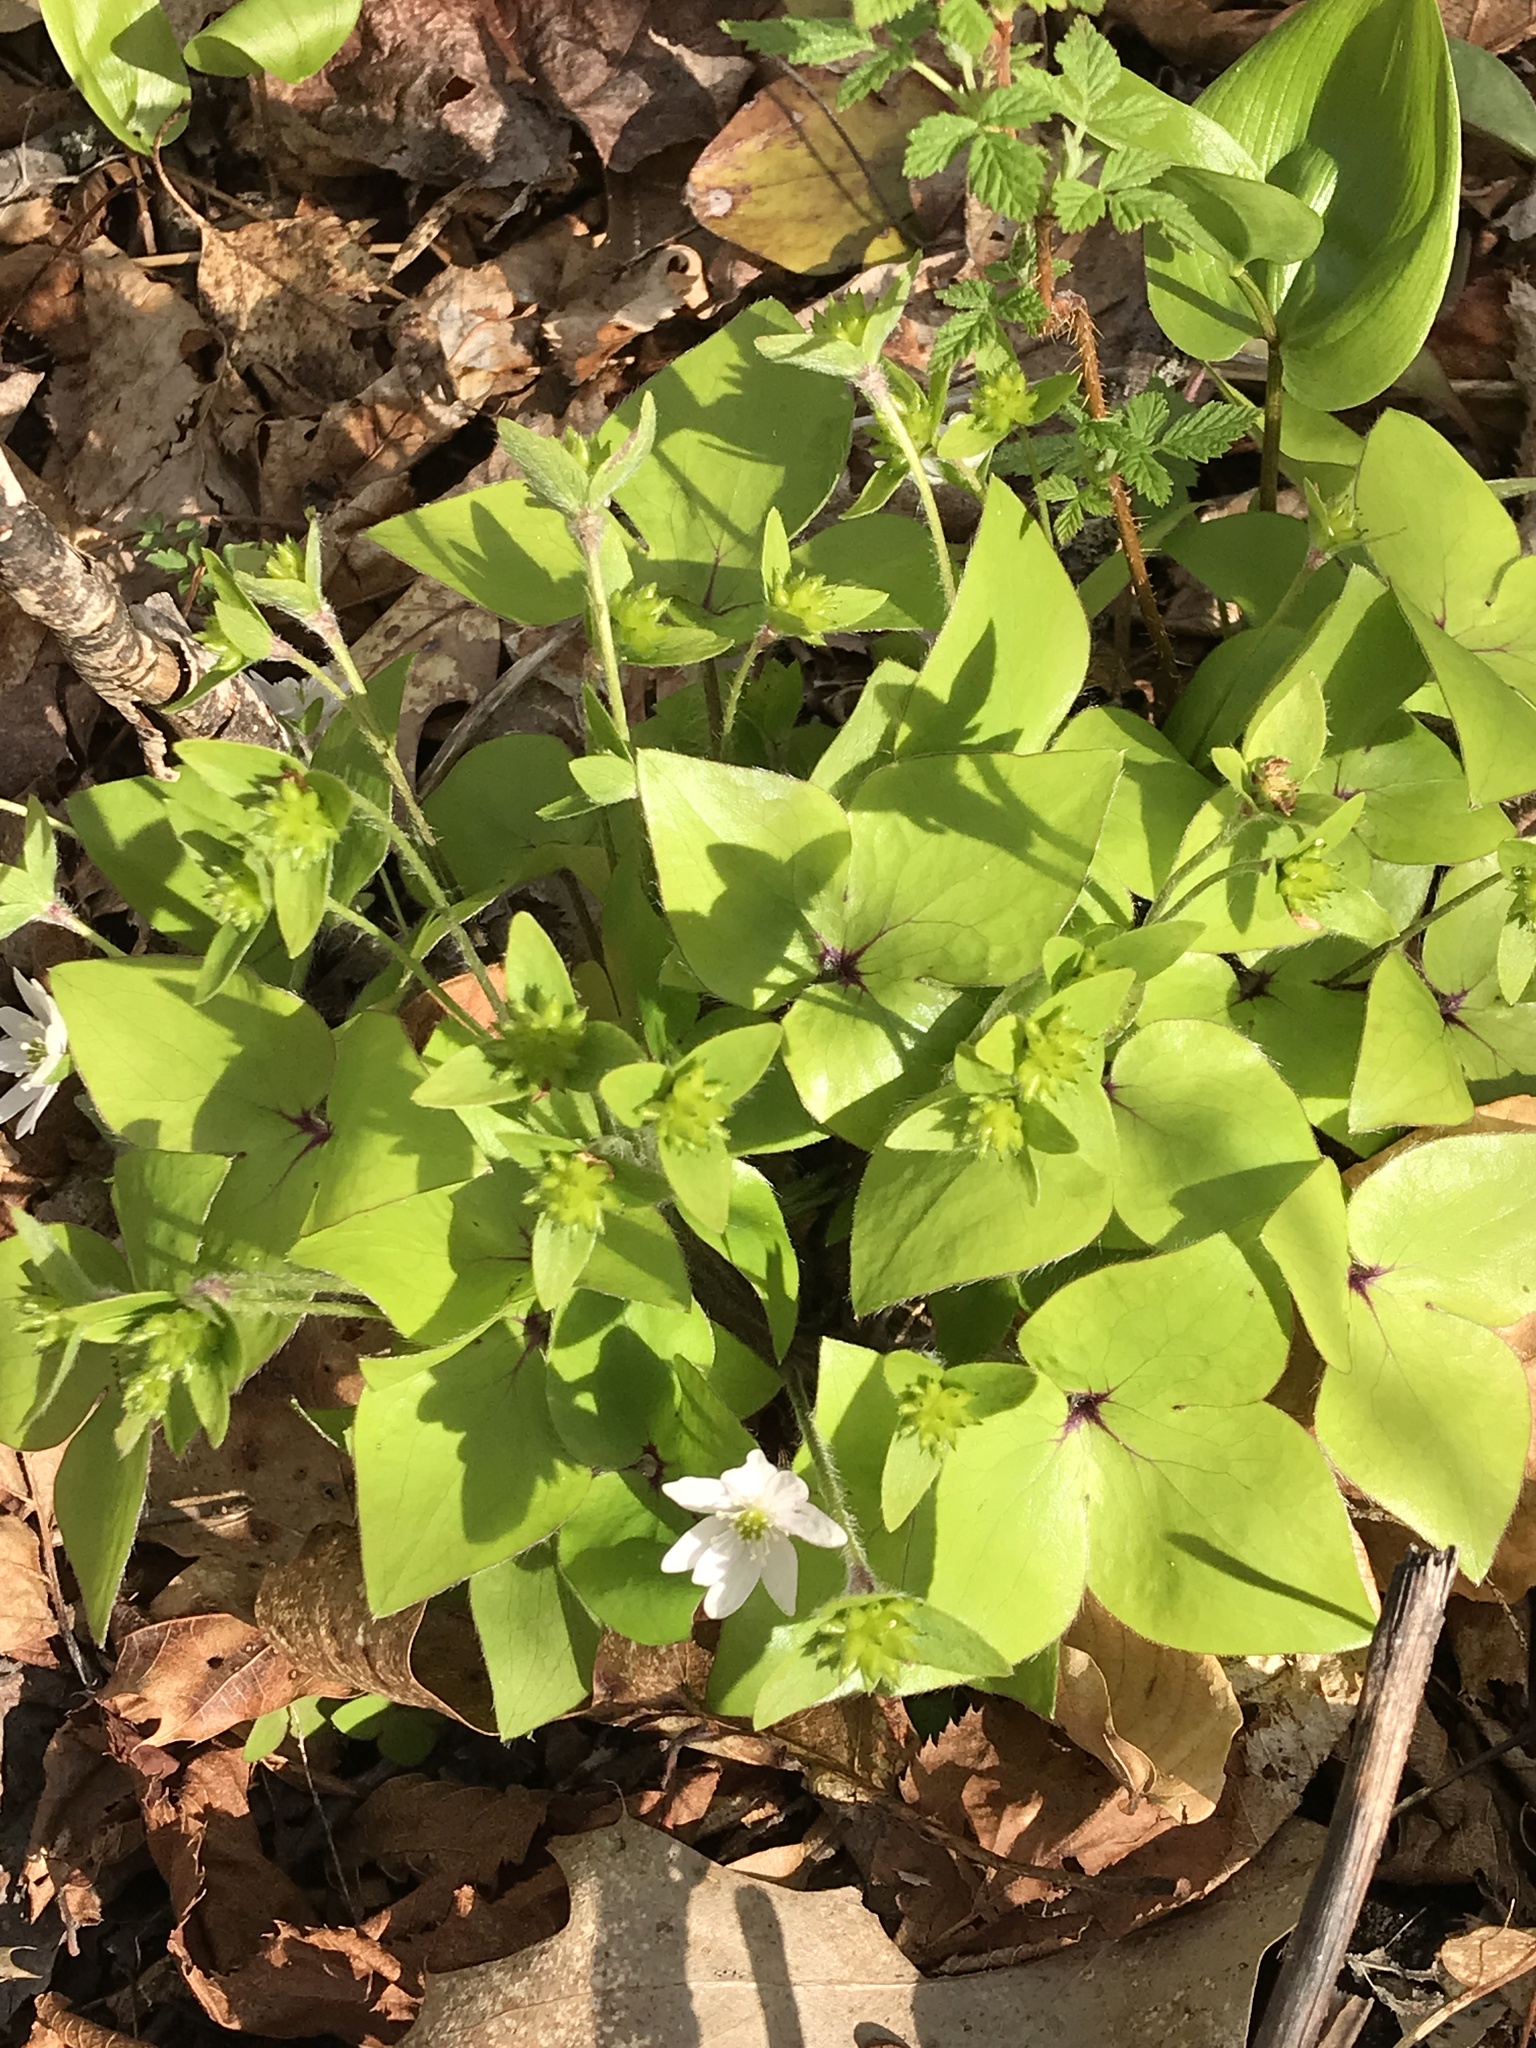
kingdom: Plantae
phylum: Tracheophyta
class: Magnoliopsida
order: Ranunculales
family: Ranunculaceae
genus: Hepatica
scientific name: Hepatica acutiloba
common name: Sharp-lobed hepatica
